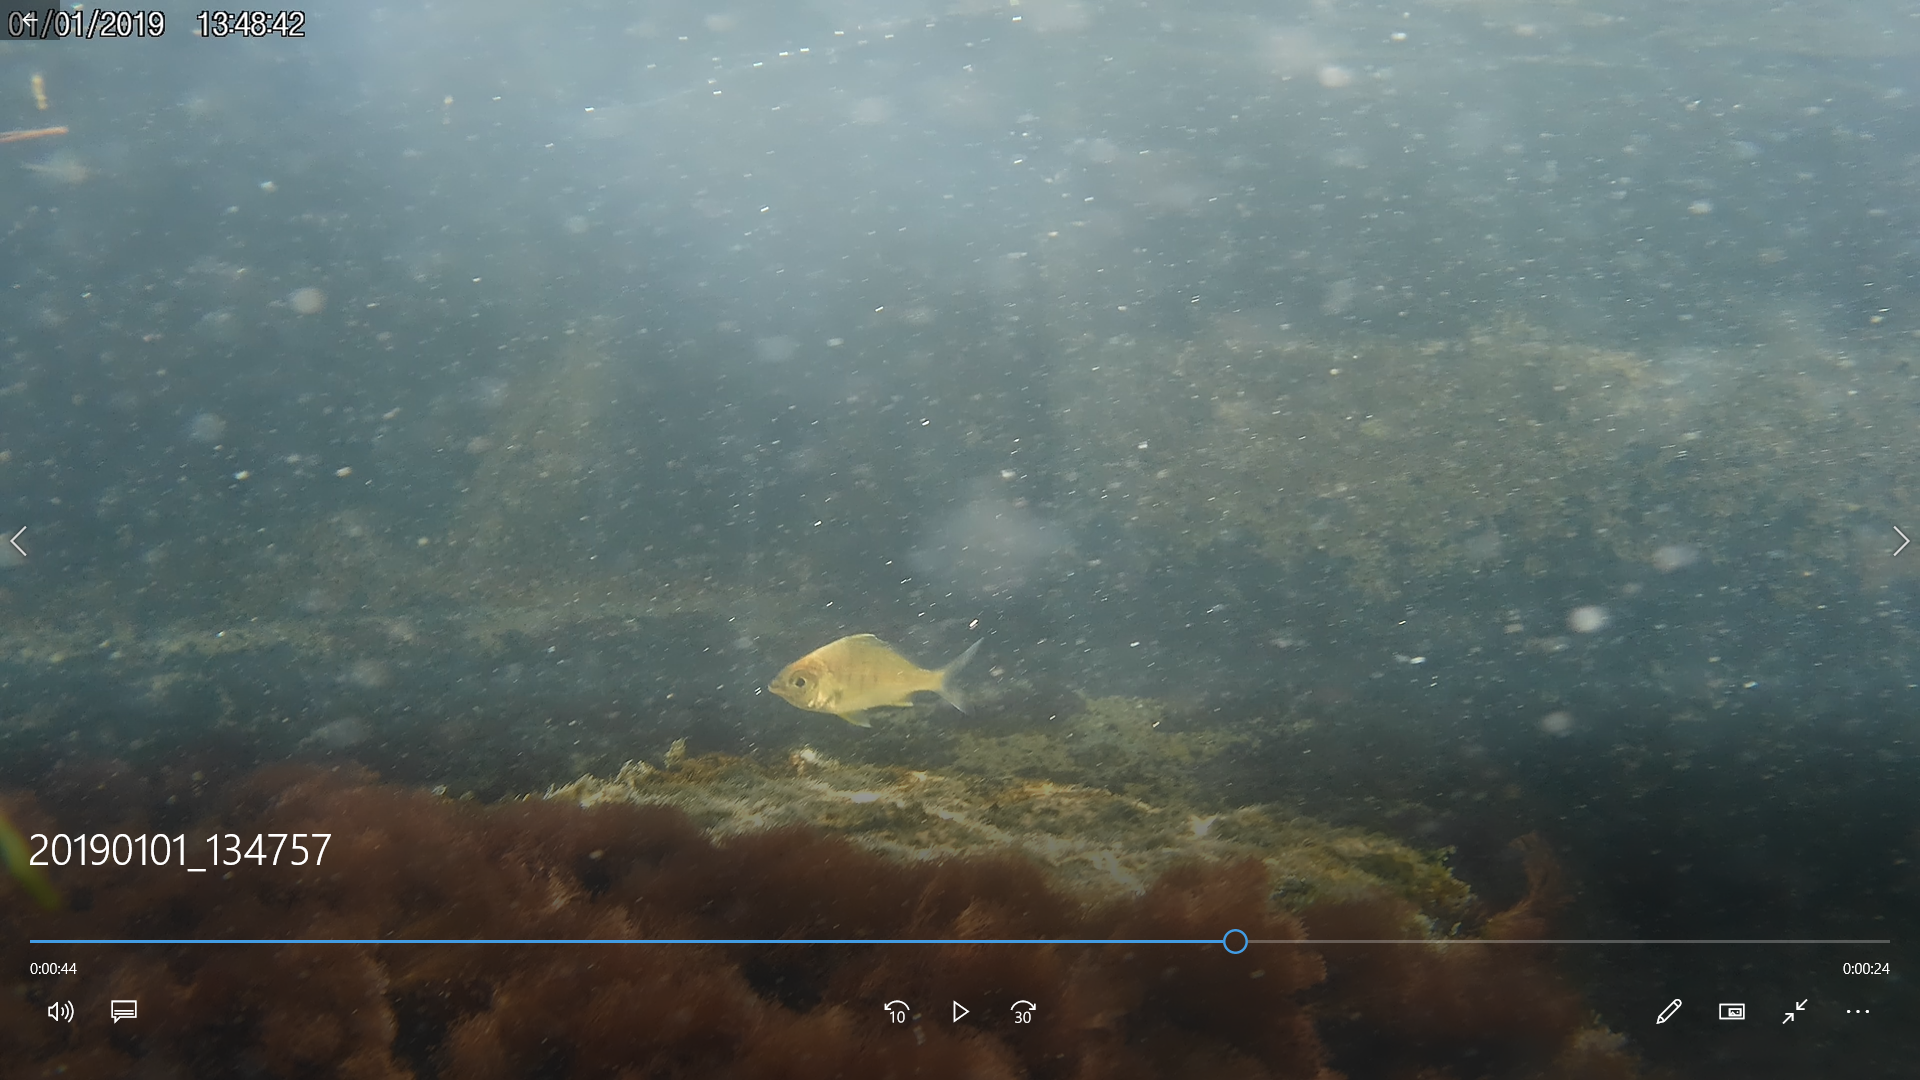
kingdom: Animalia
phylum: Chordata
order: Perciformes
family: Gerreidae
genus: Gerres
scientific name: Gerres cinereus
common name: Hedow
